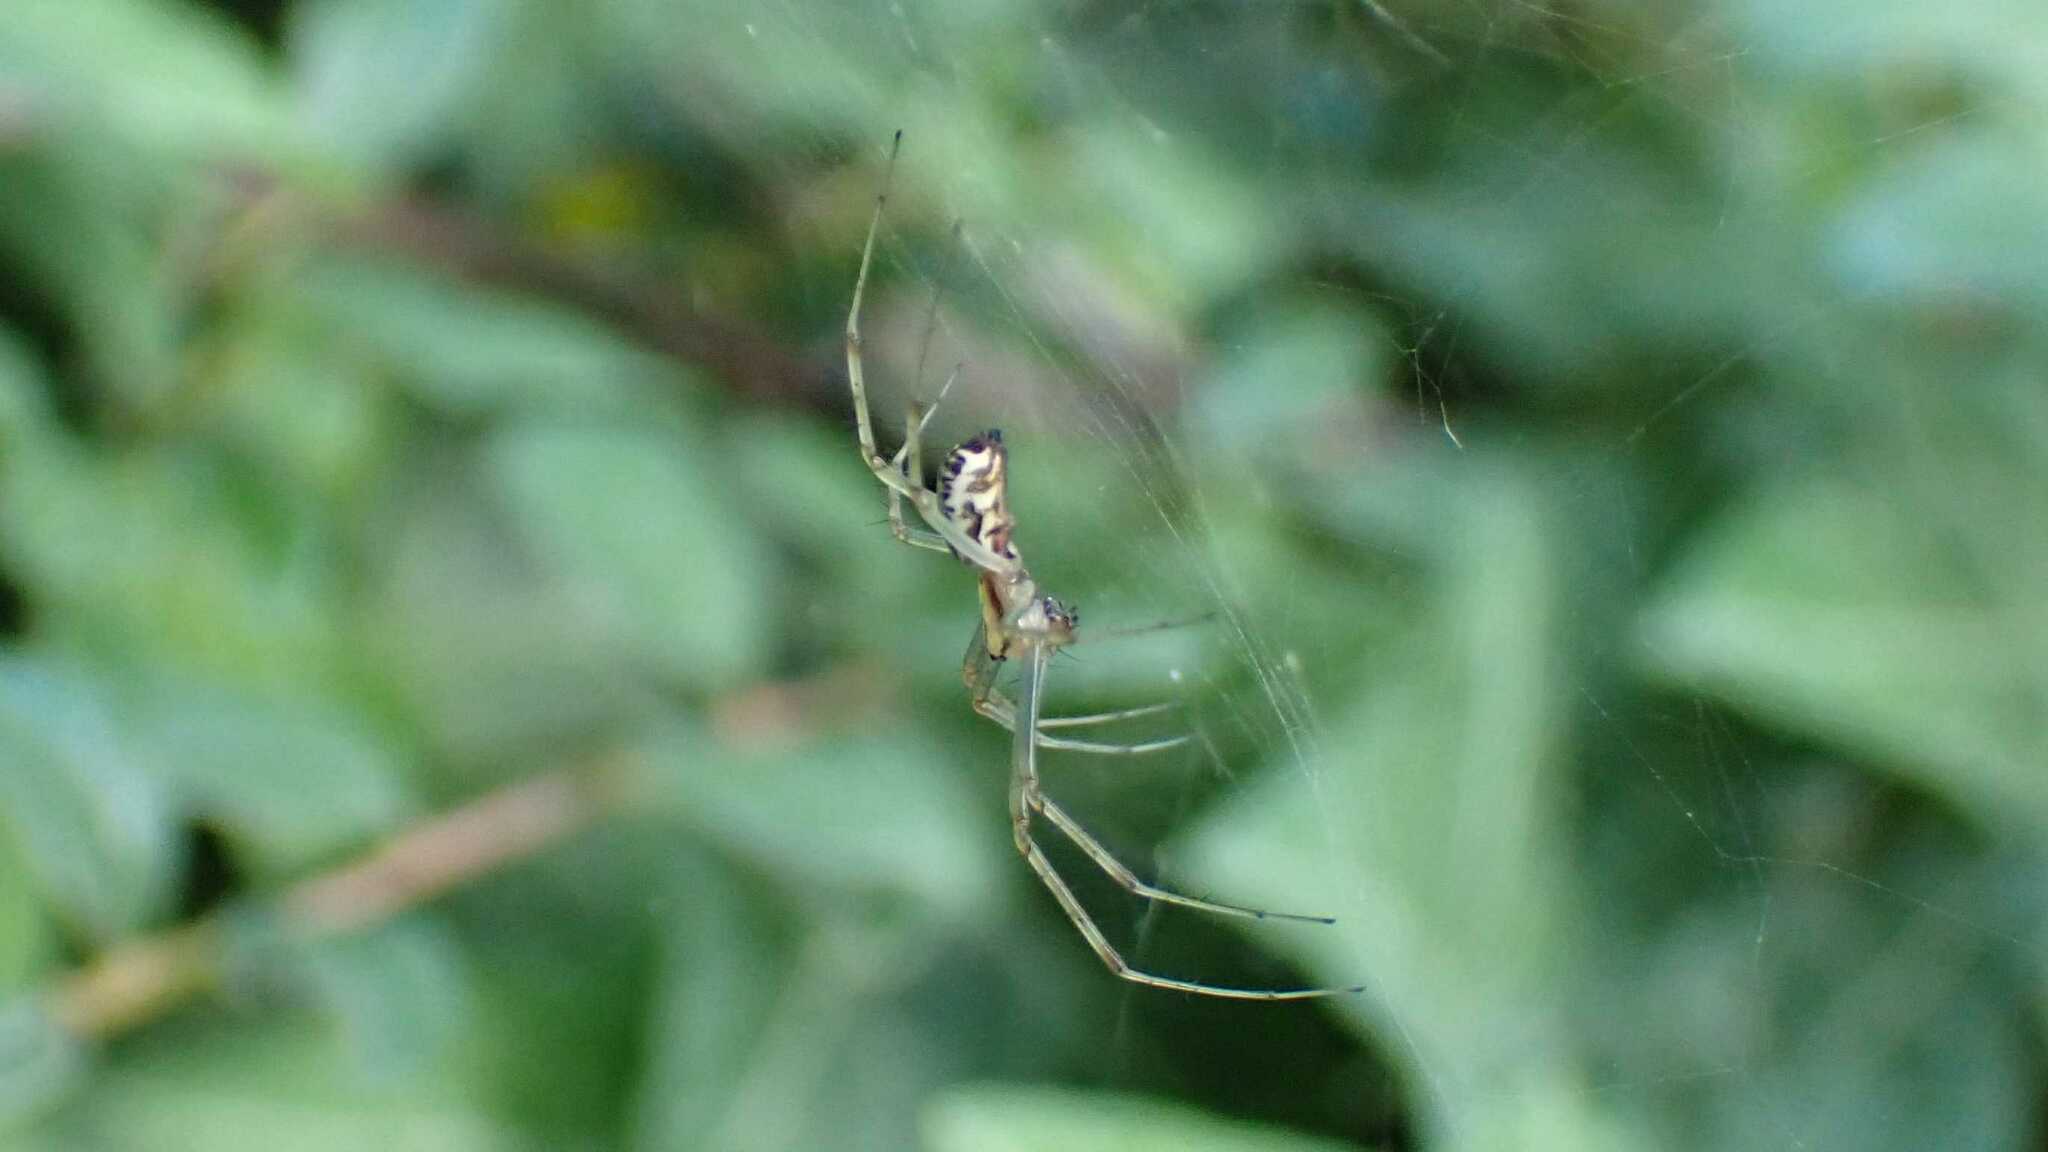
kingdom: Animalia
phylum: Arthropoda
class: Arachnida
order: Araneae
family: Linyphiidae
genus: Linyphia
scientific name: Linyphia triangularis
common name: Money spider
